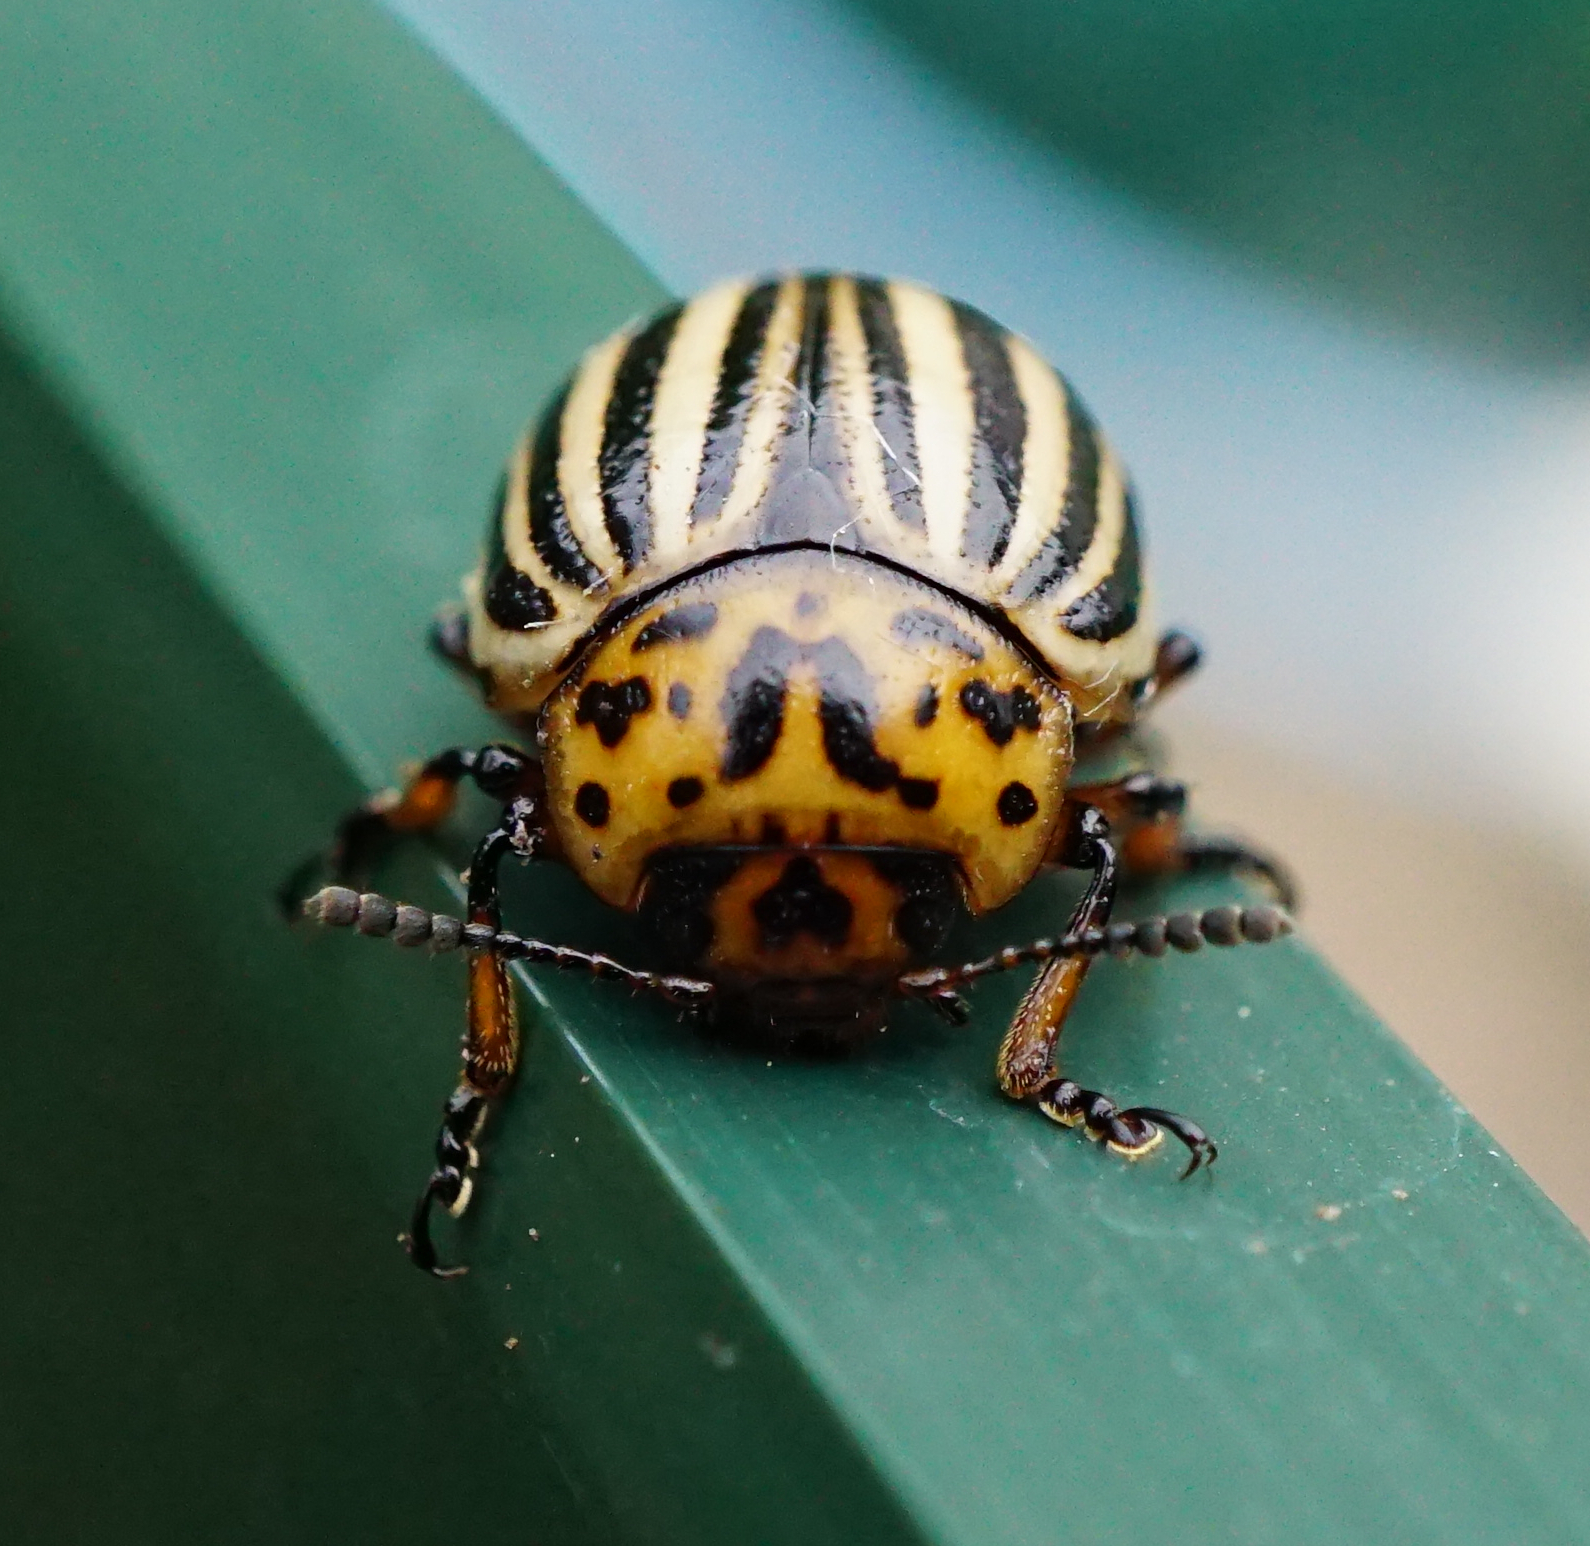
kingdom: Animalia
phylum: Arthropoda
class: Insecta
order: Coleoptera
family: Chrysomelidae
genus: Leptinotarsa
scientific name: Leptinotarsa decemlineata
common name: Colorado potato beetle
